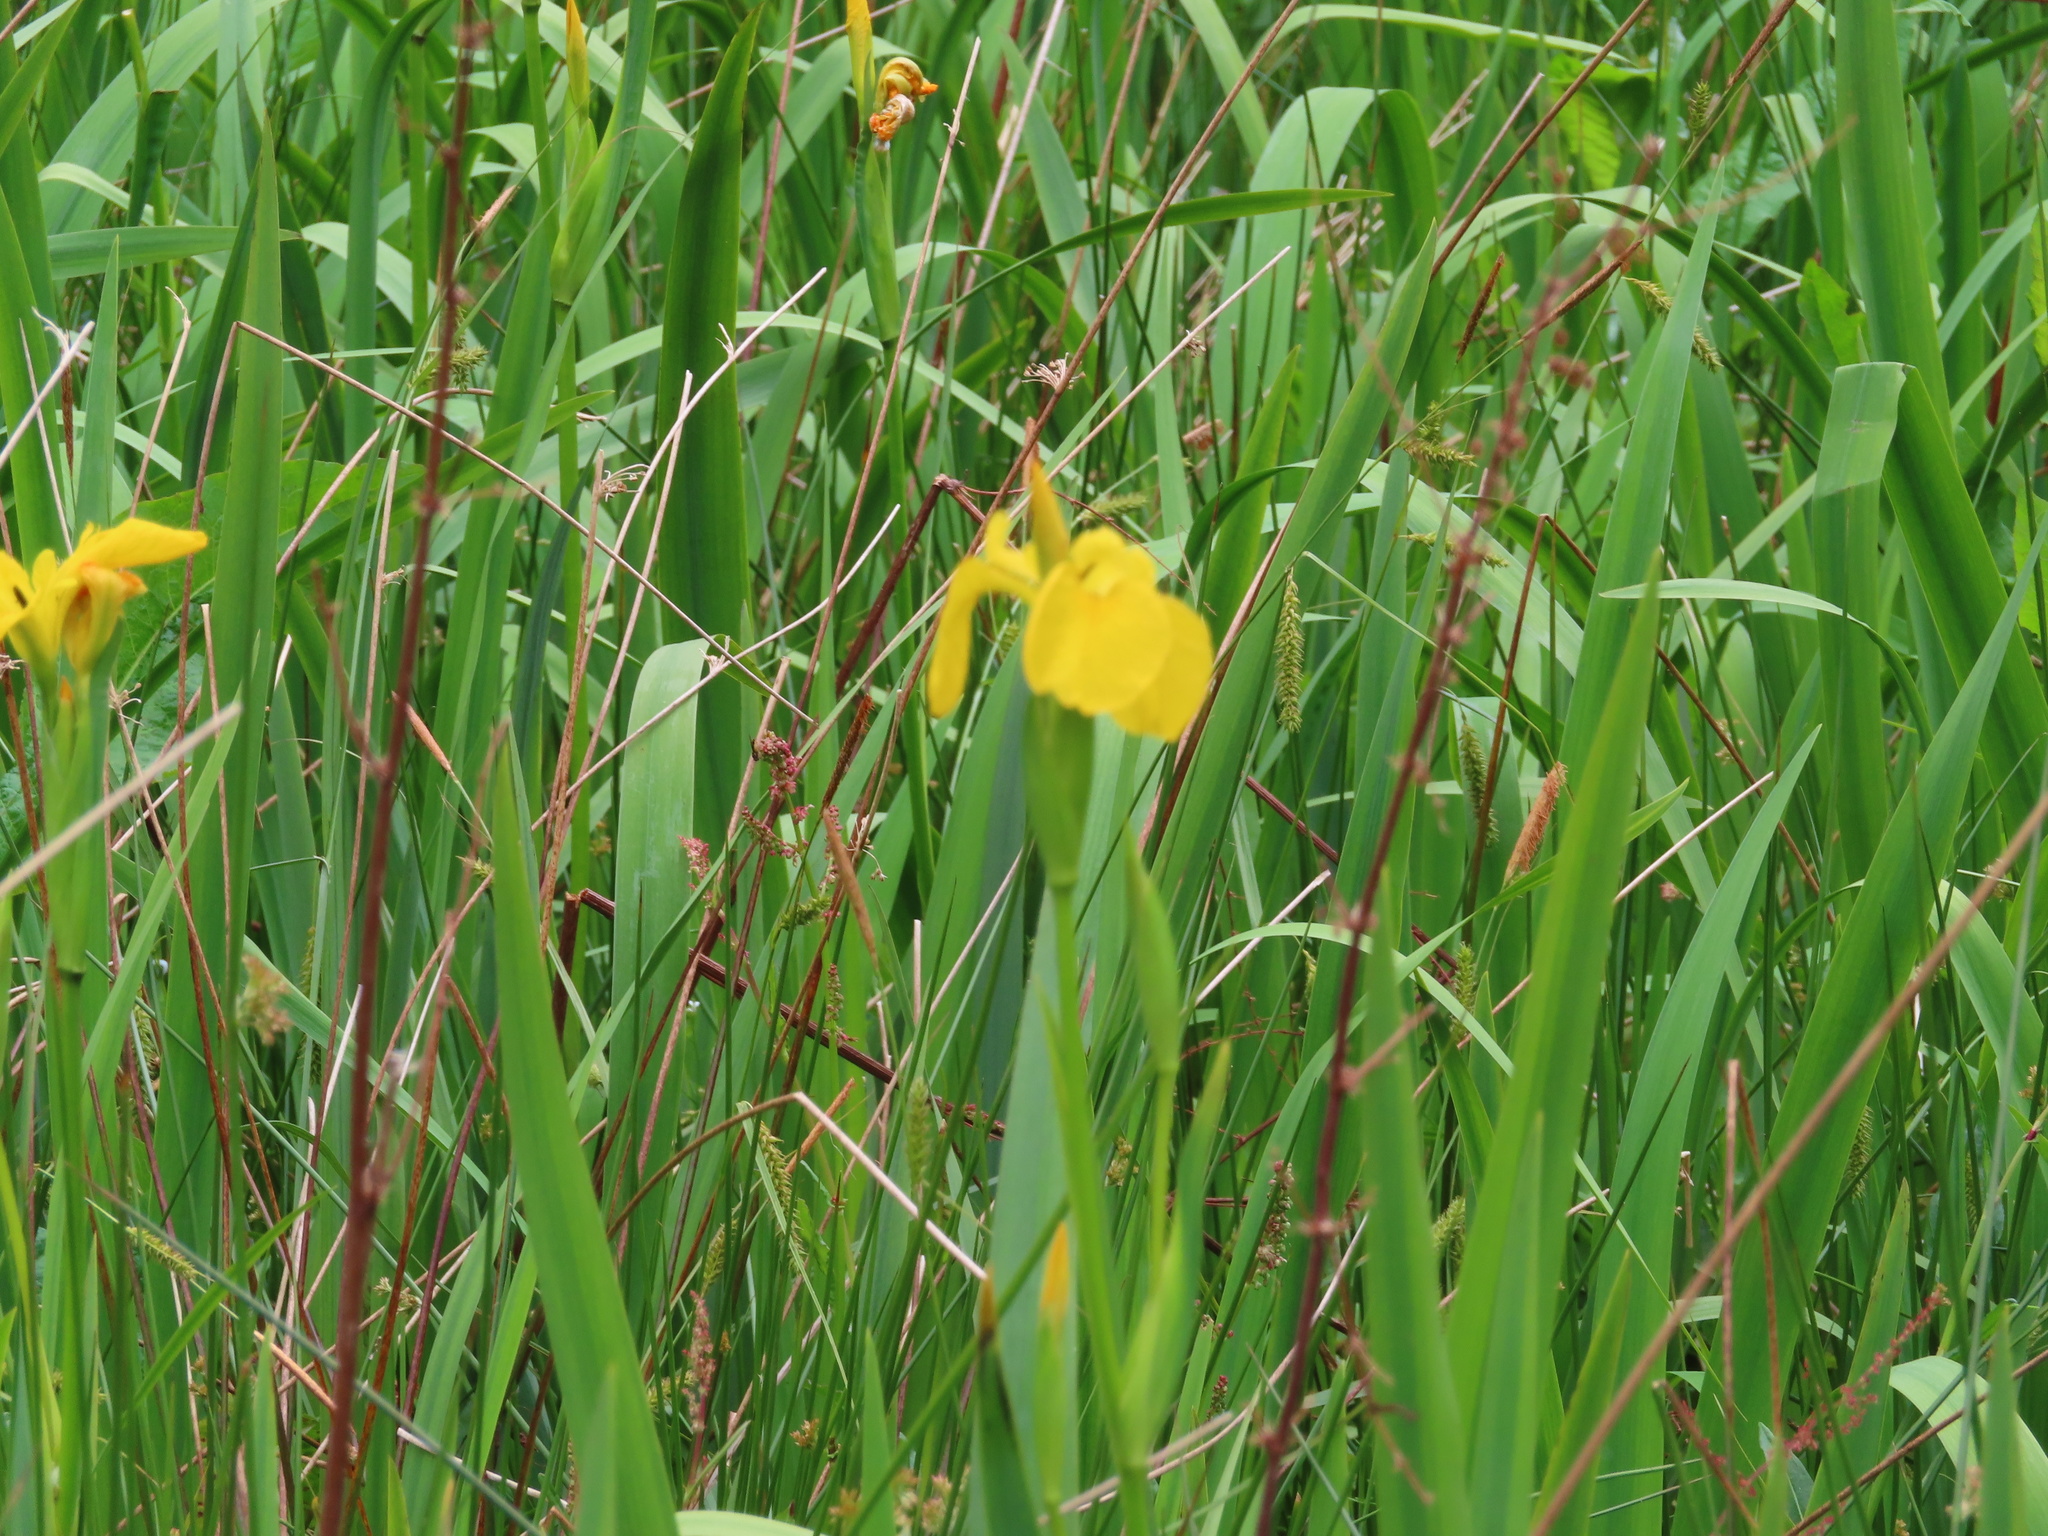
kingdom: Plantae
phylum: Tracheophyta
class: Liliopsida
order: Asparagales
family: Iridaceae
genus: Iris
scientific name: Iris pseudacorus
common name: Yellow flag
